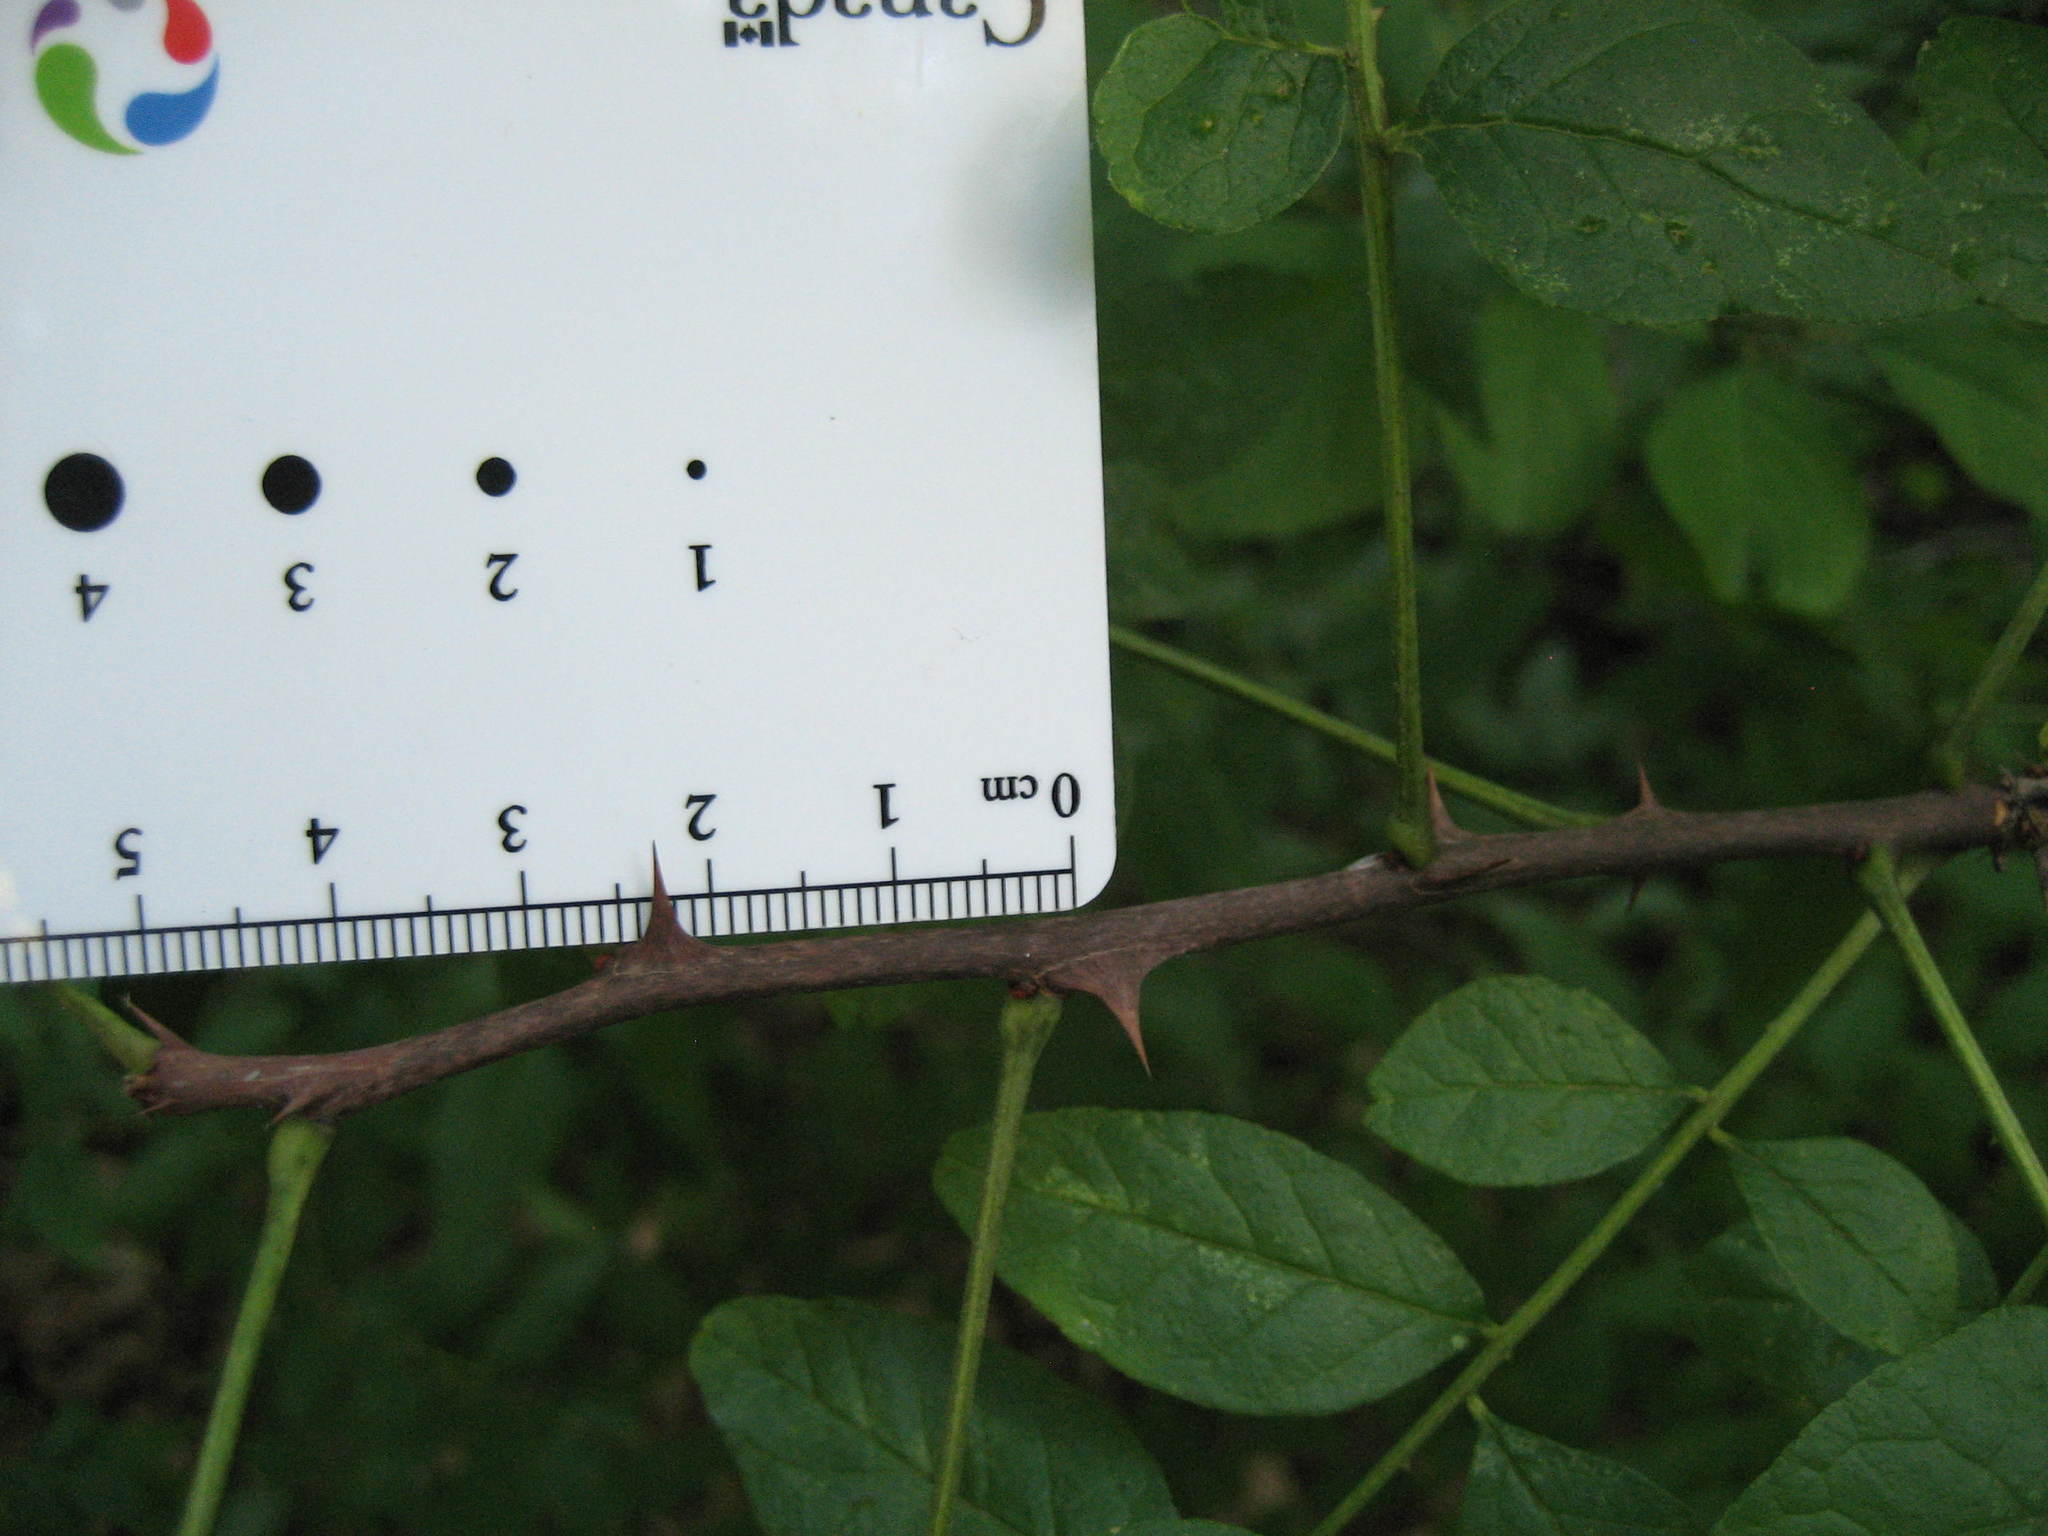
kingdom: Plantae
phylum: Tracheophyta
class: Magnoliopsida
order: Sapindales
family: Rutaceae
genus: Zanthoxylum
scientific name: Zanthoxylum americanum
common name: Northern prickly-ash
